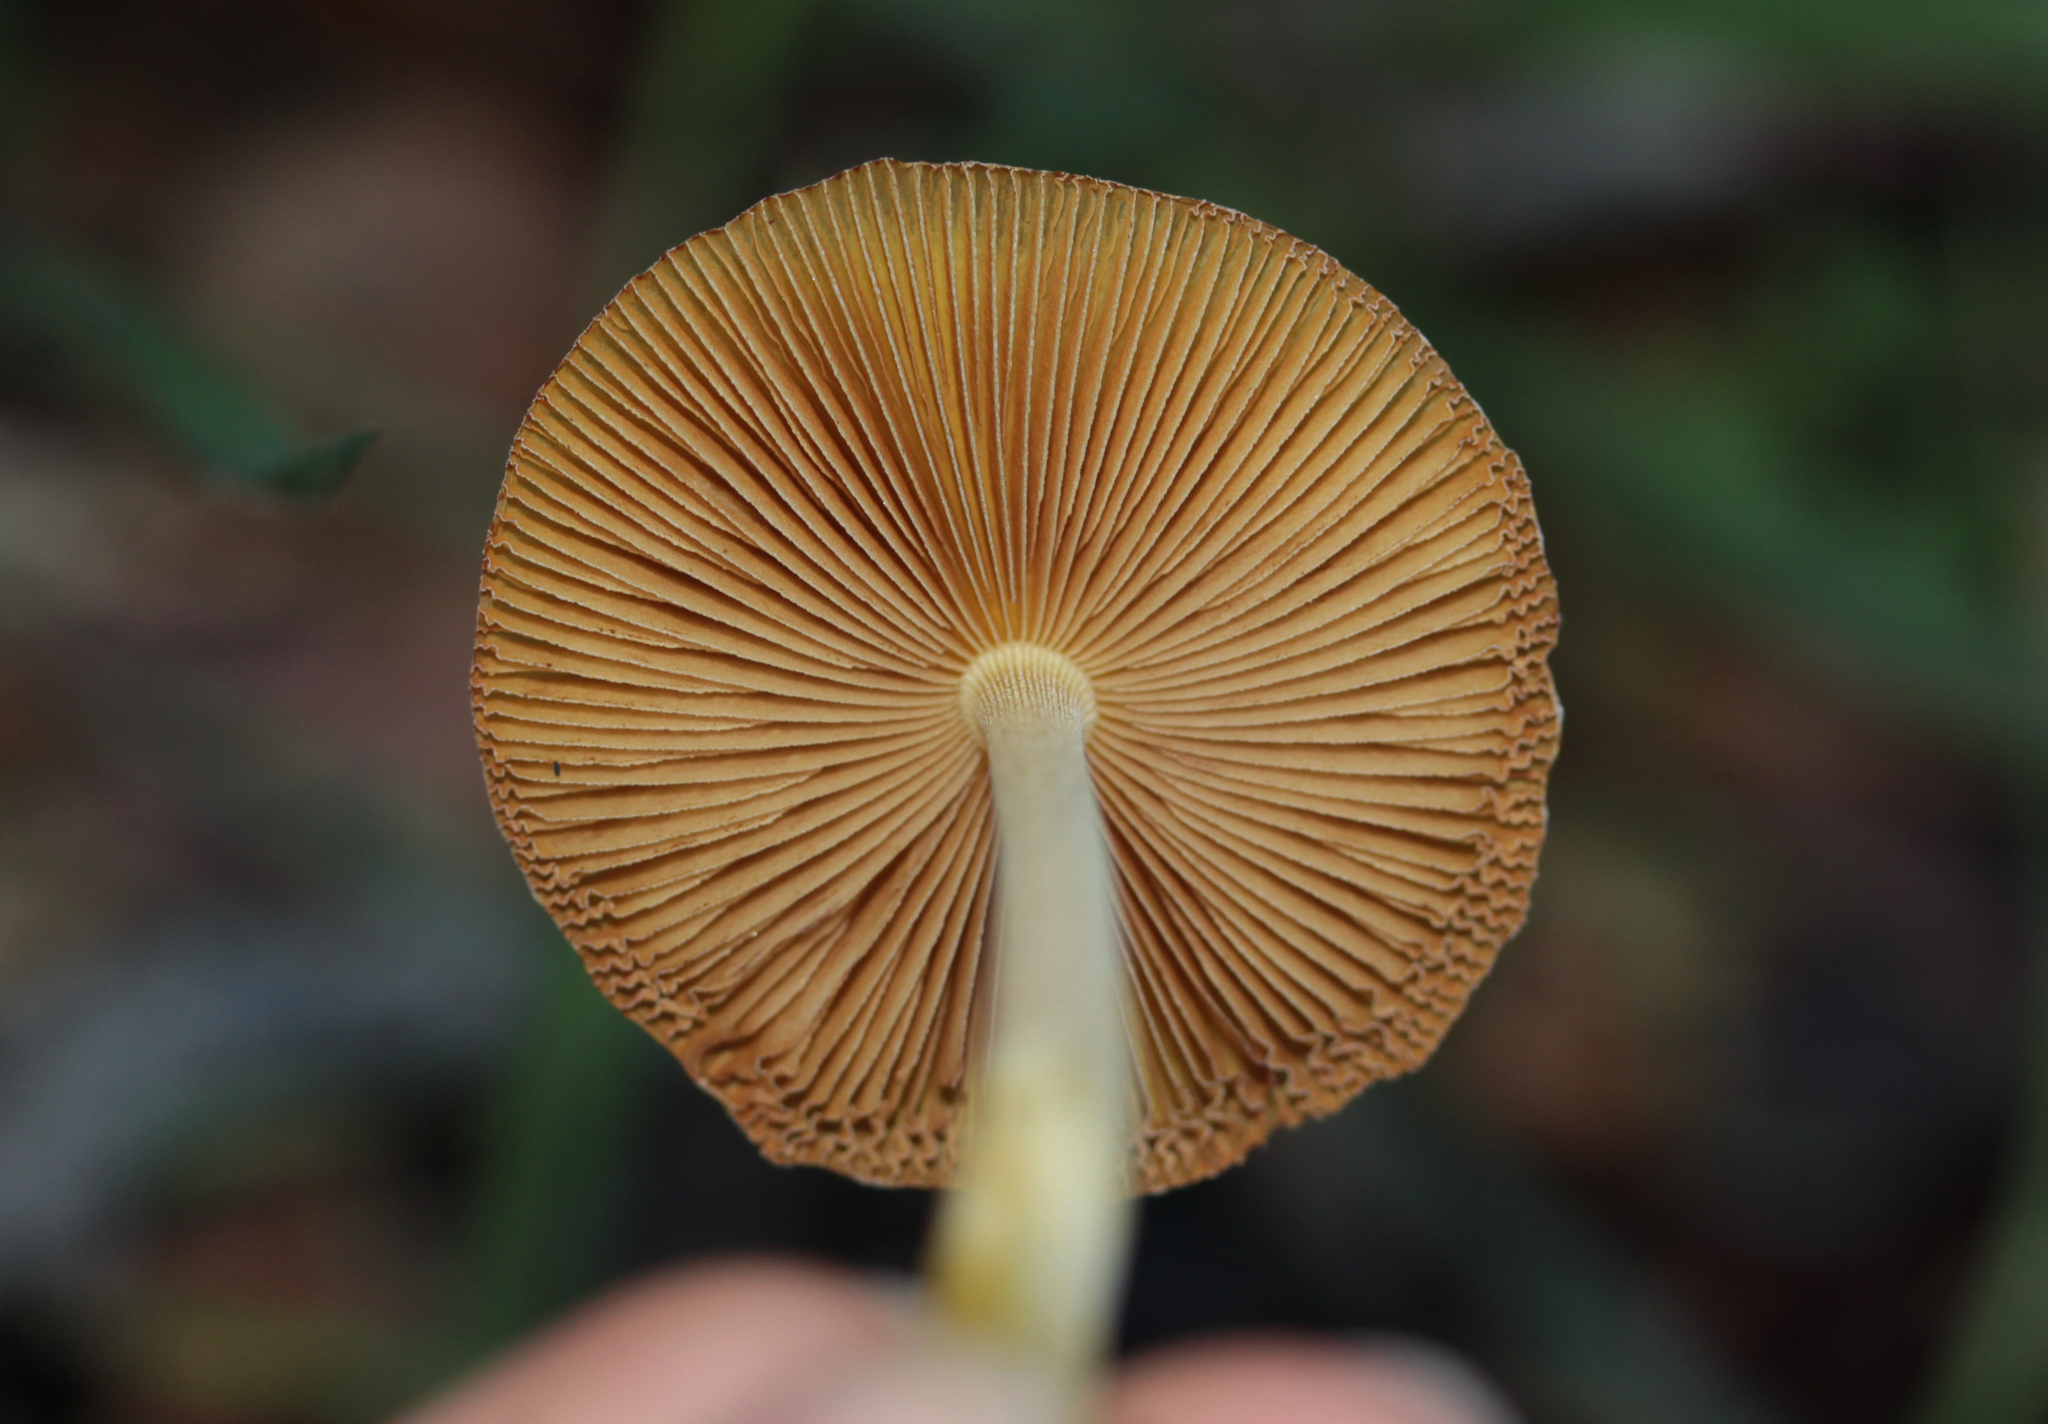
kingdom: Fungi
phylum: Basidiomycota
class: Agaricomycetes
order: Agaricales
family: Bolbitiaceae
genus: Bolbitius
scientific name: Bolbitius titubans
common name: Yellow fieldcap
